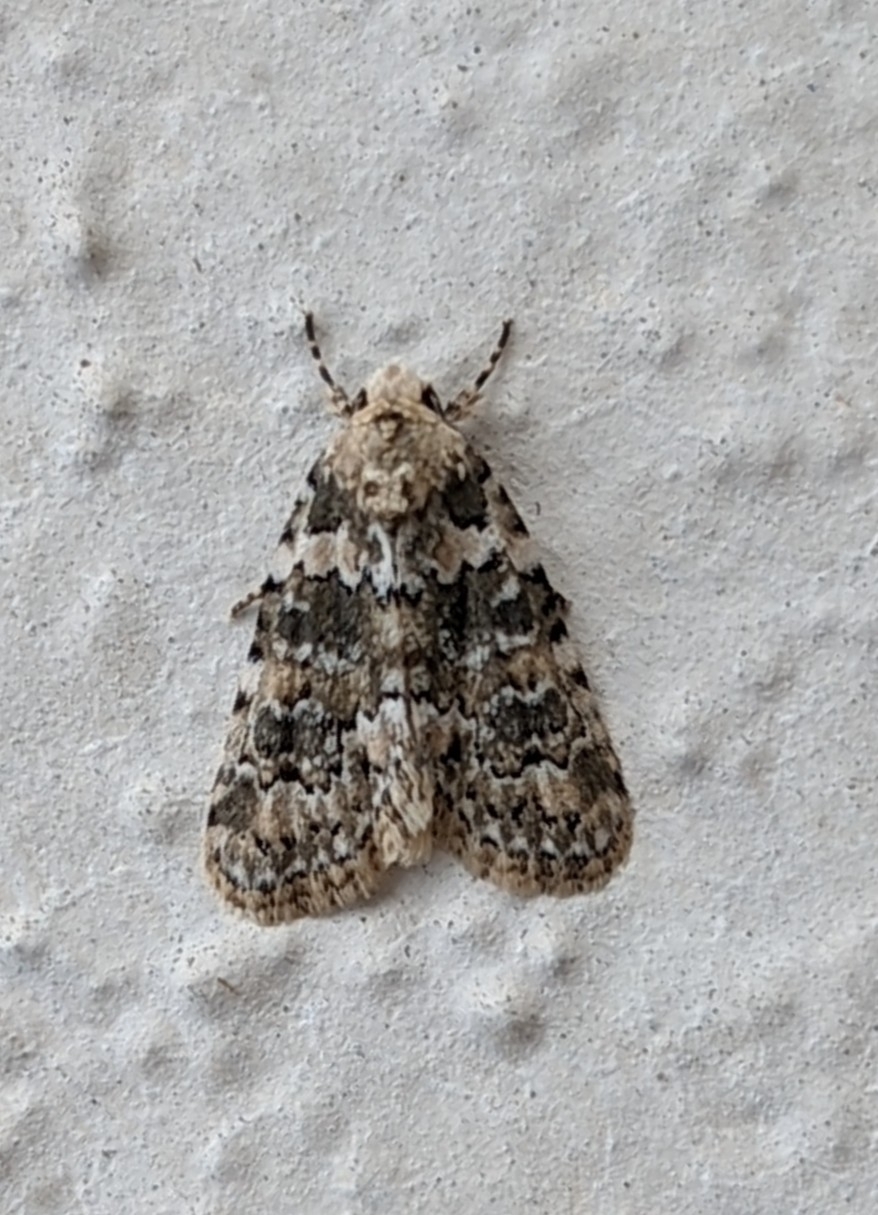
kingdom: Animalia
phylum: Arthropoda
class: Insecta
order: Lepidoptera
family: Noctuidae
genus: Bryophila
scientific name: Bryophila domestica
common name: Marbled beauty
